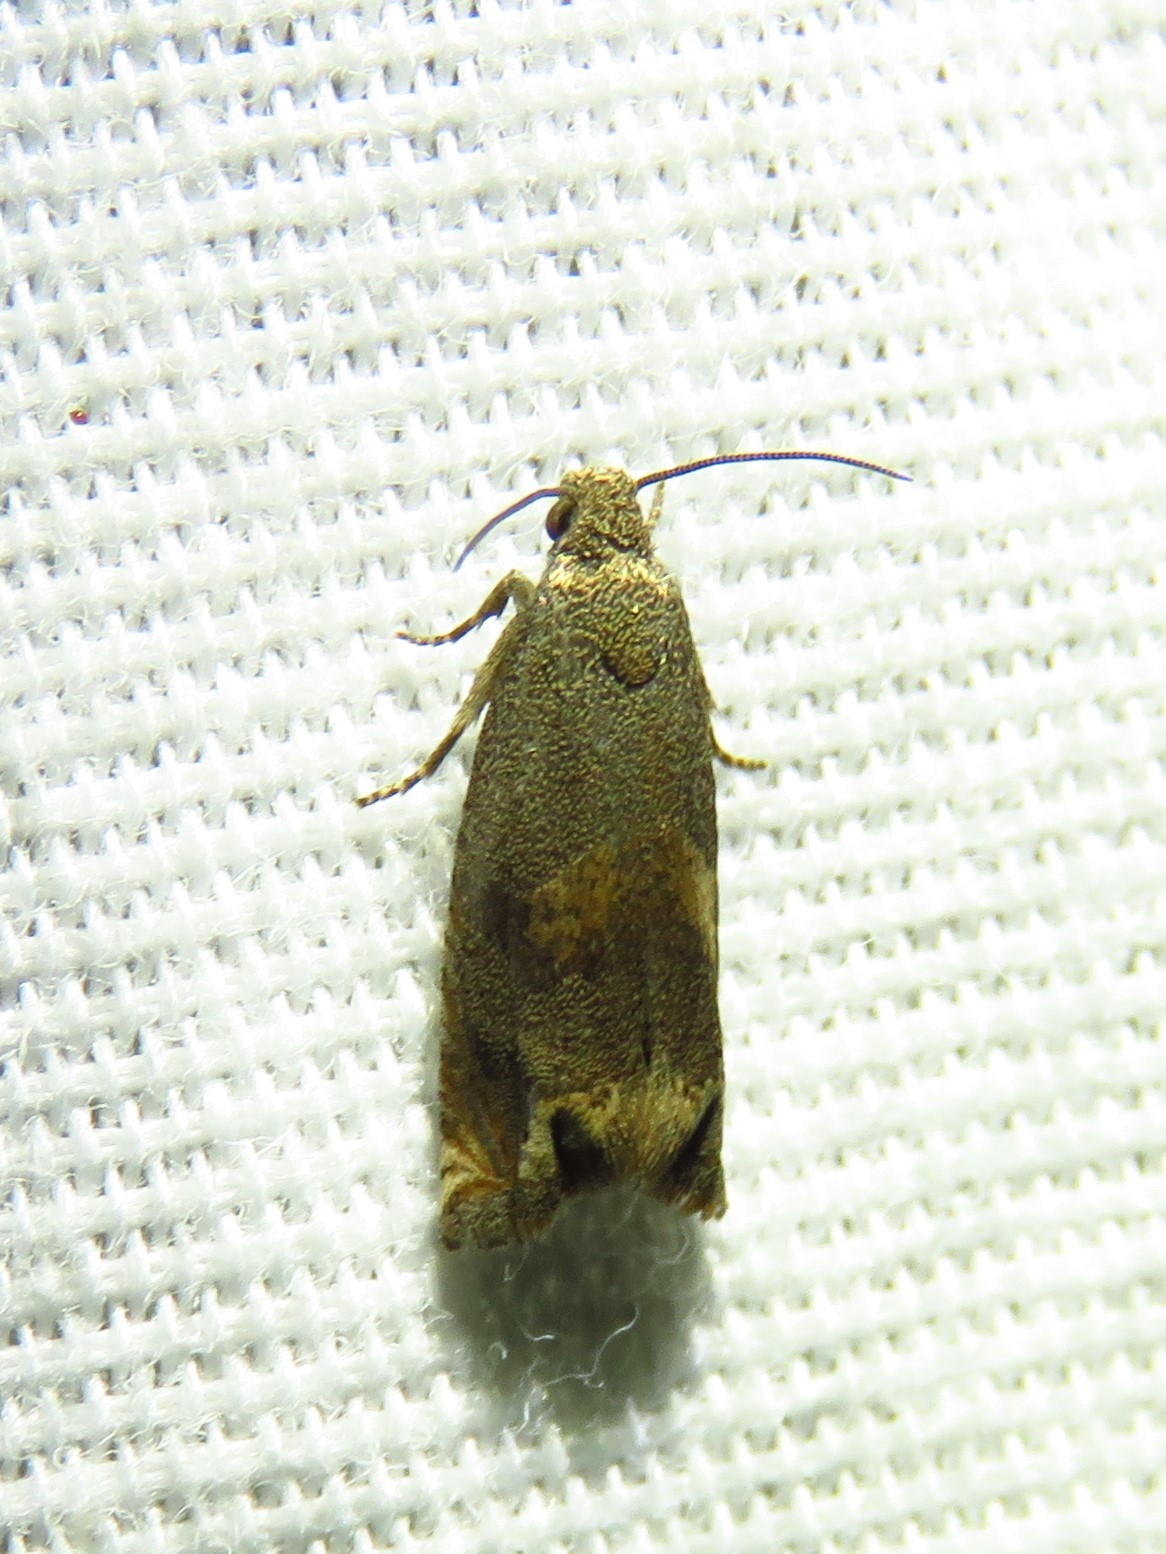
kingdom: Animalia
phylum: Arthropoda
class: Insecta
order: Lepidoptera
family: Tortricidae
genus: Epiblema
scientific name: Epiblema strenuana
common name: Ragweed borer moth
